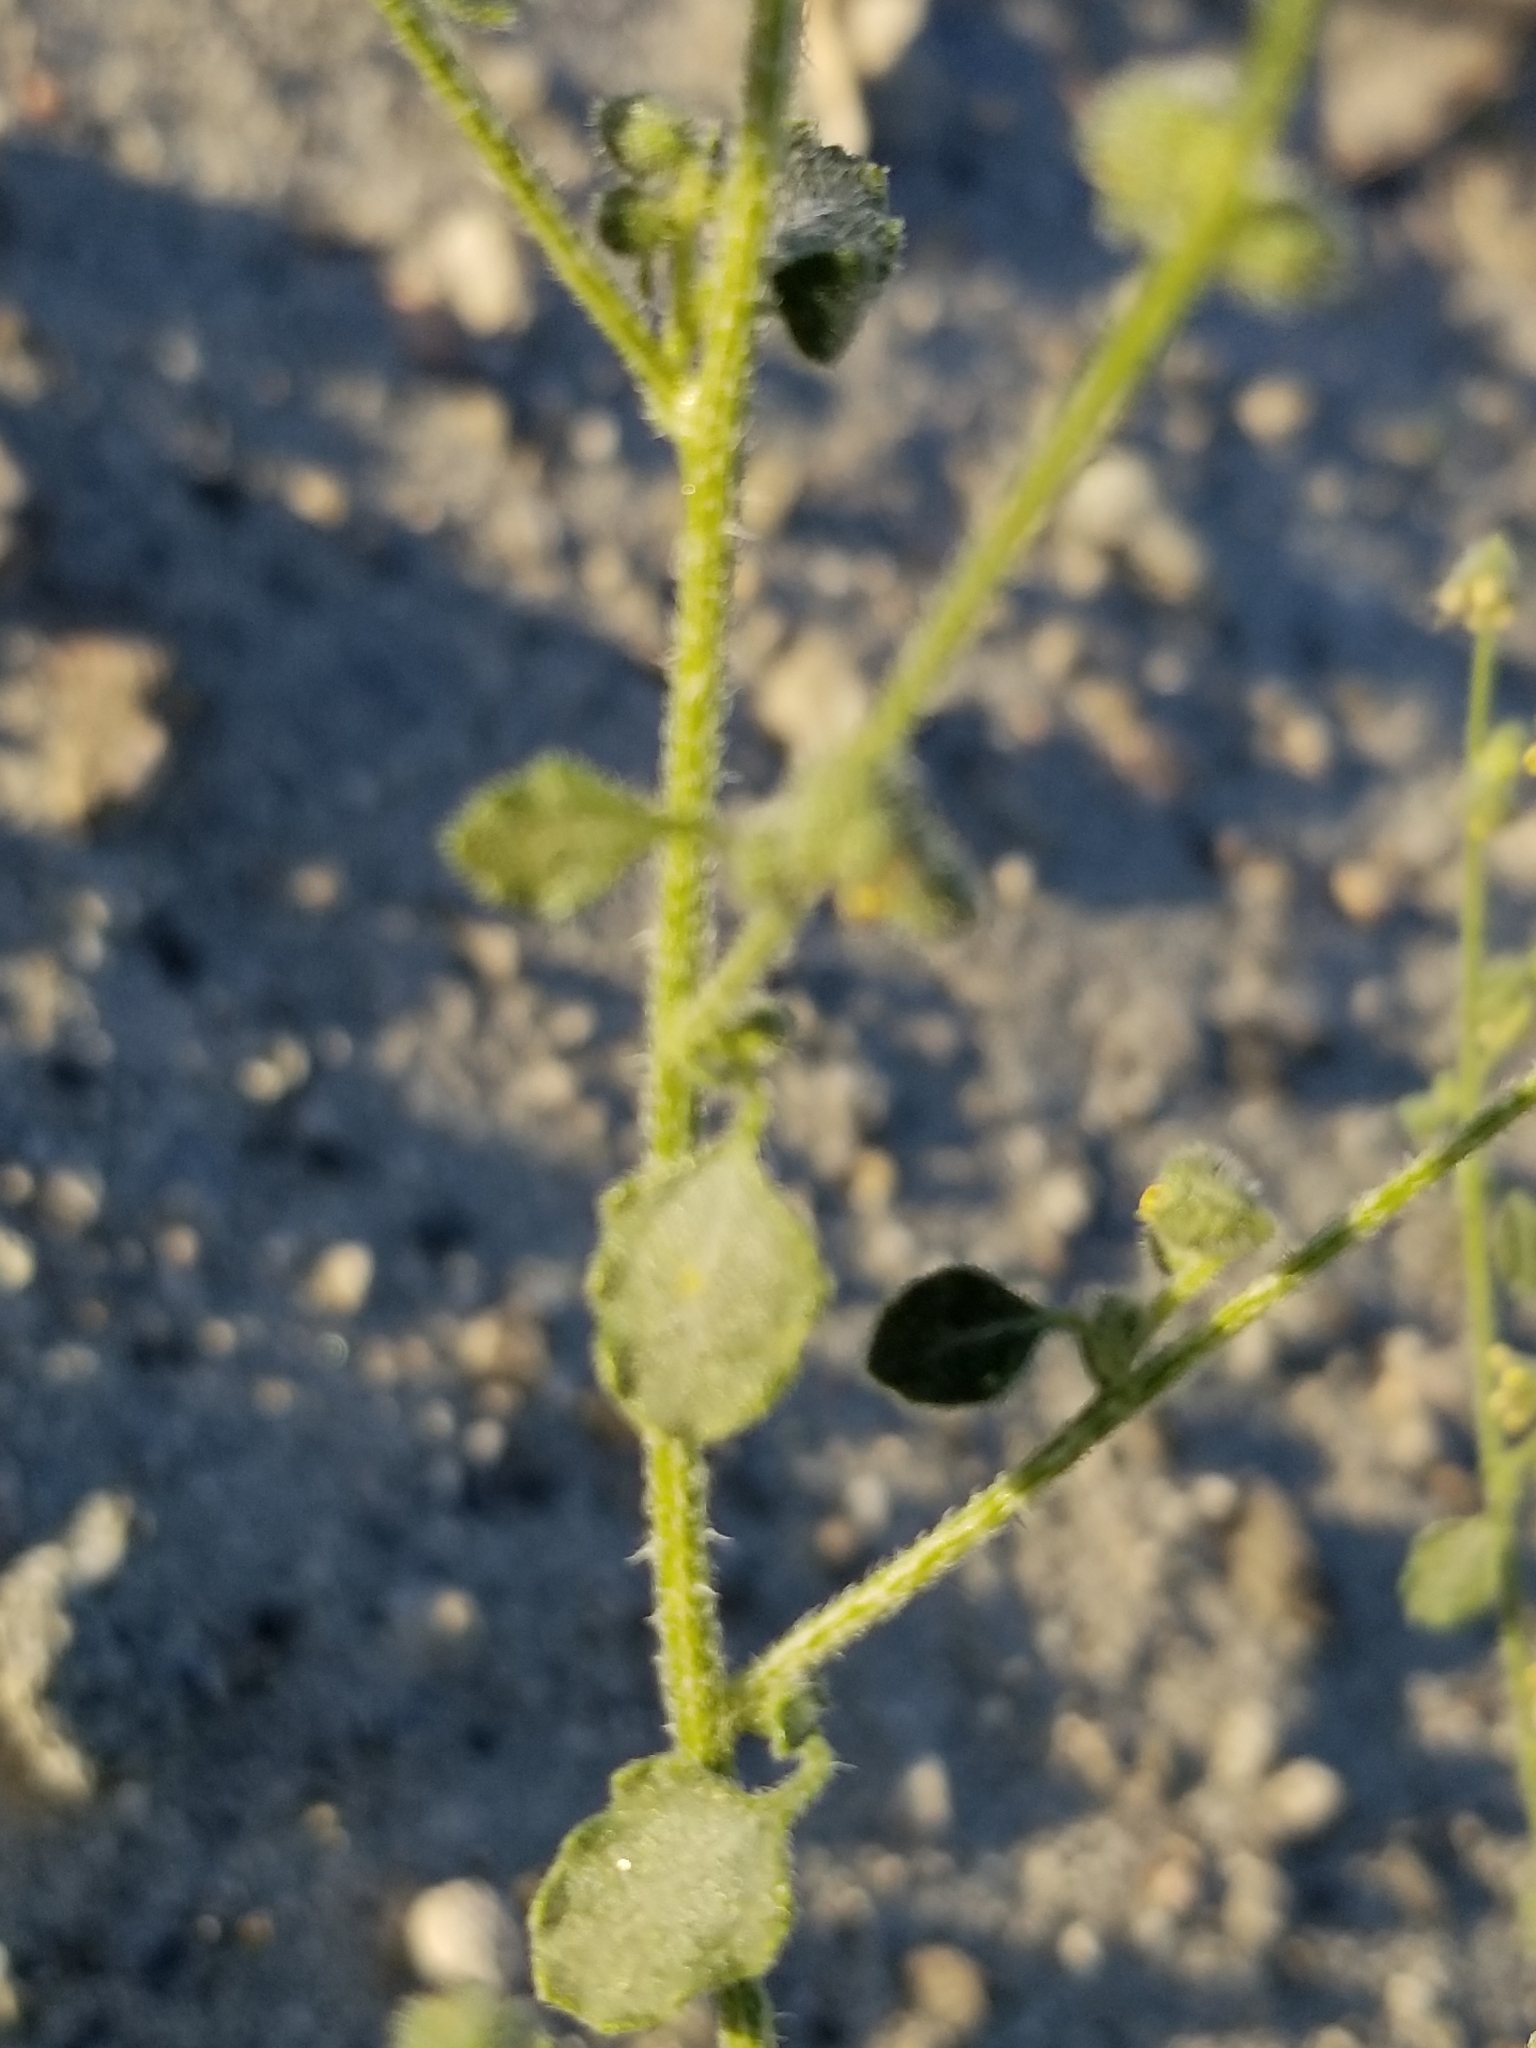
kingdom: Plantae
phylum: Tracheophyta
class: Magnoliopsida
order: Asterales
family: Asteraceae
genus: Dicoria
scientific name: Dicoria canescens
